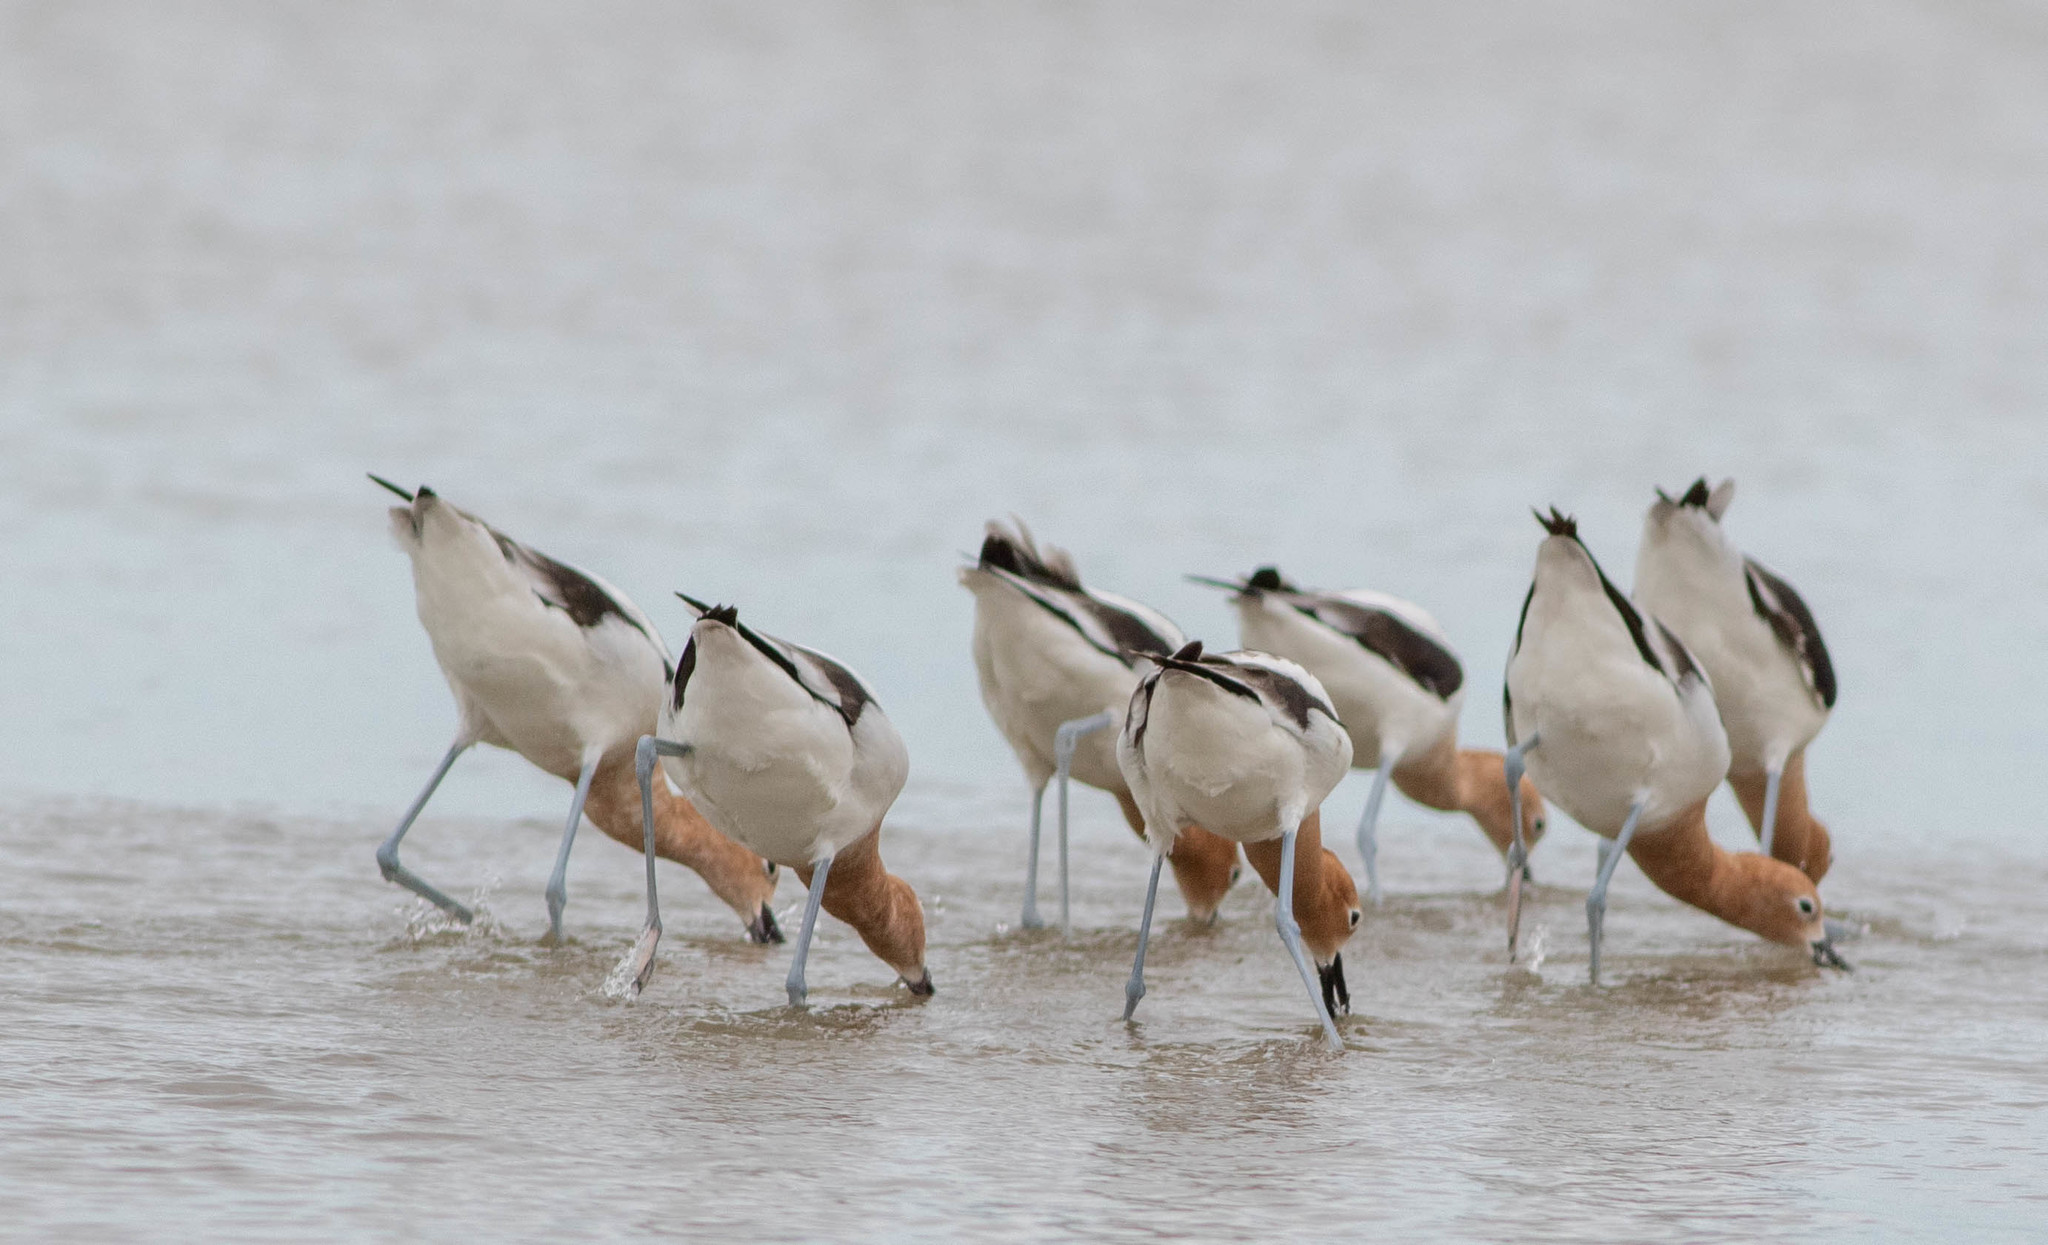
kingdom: Animalia
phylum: Chordata
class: Aves
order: Charadriiformes
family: Recurvirostridae
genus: Recurvirostra
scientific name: Recurvirostra americana
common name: American avocet
